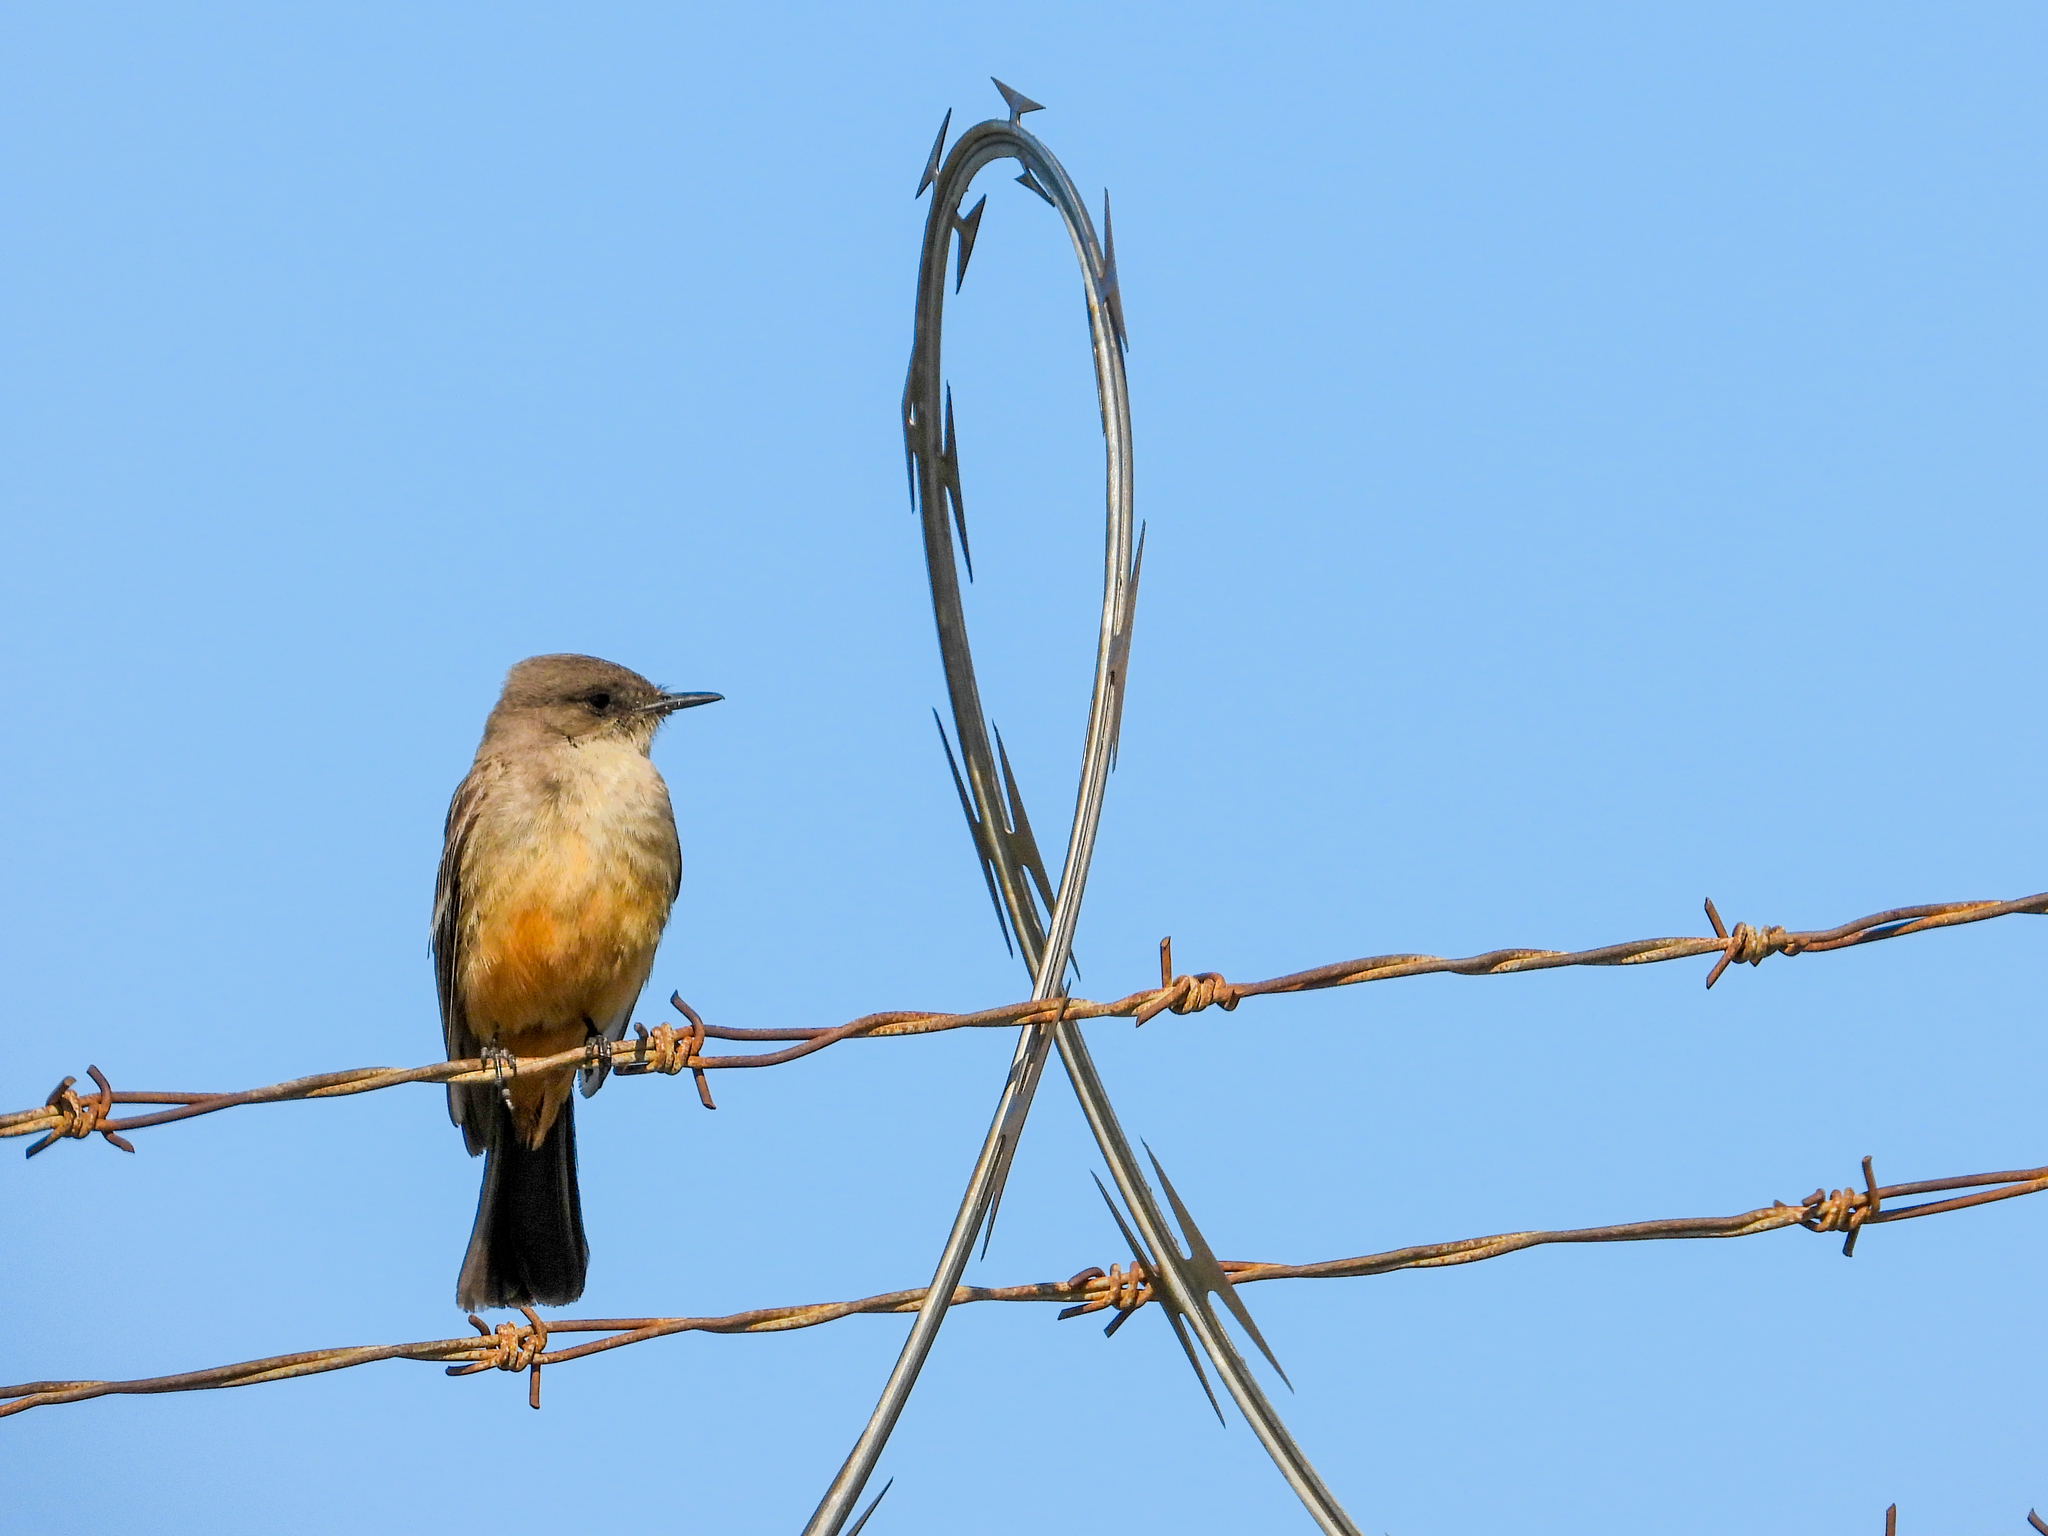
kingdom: Animalia
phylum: Chordata
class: Aves
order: Passeriformes
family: Tyrannidae
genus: Sayornis
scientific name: Sayornis saya
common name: Say's phoebe
